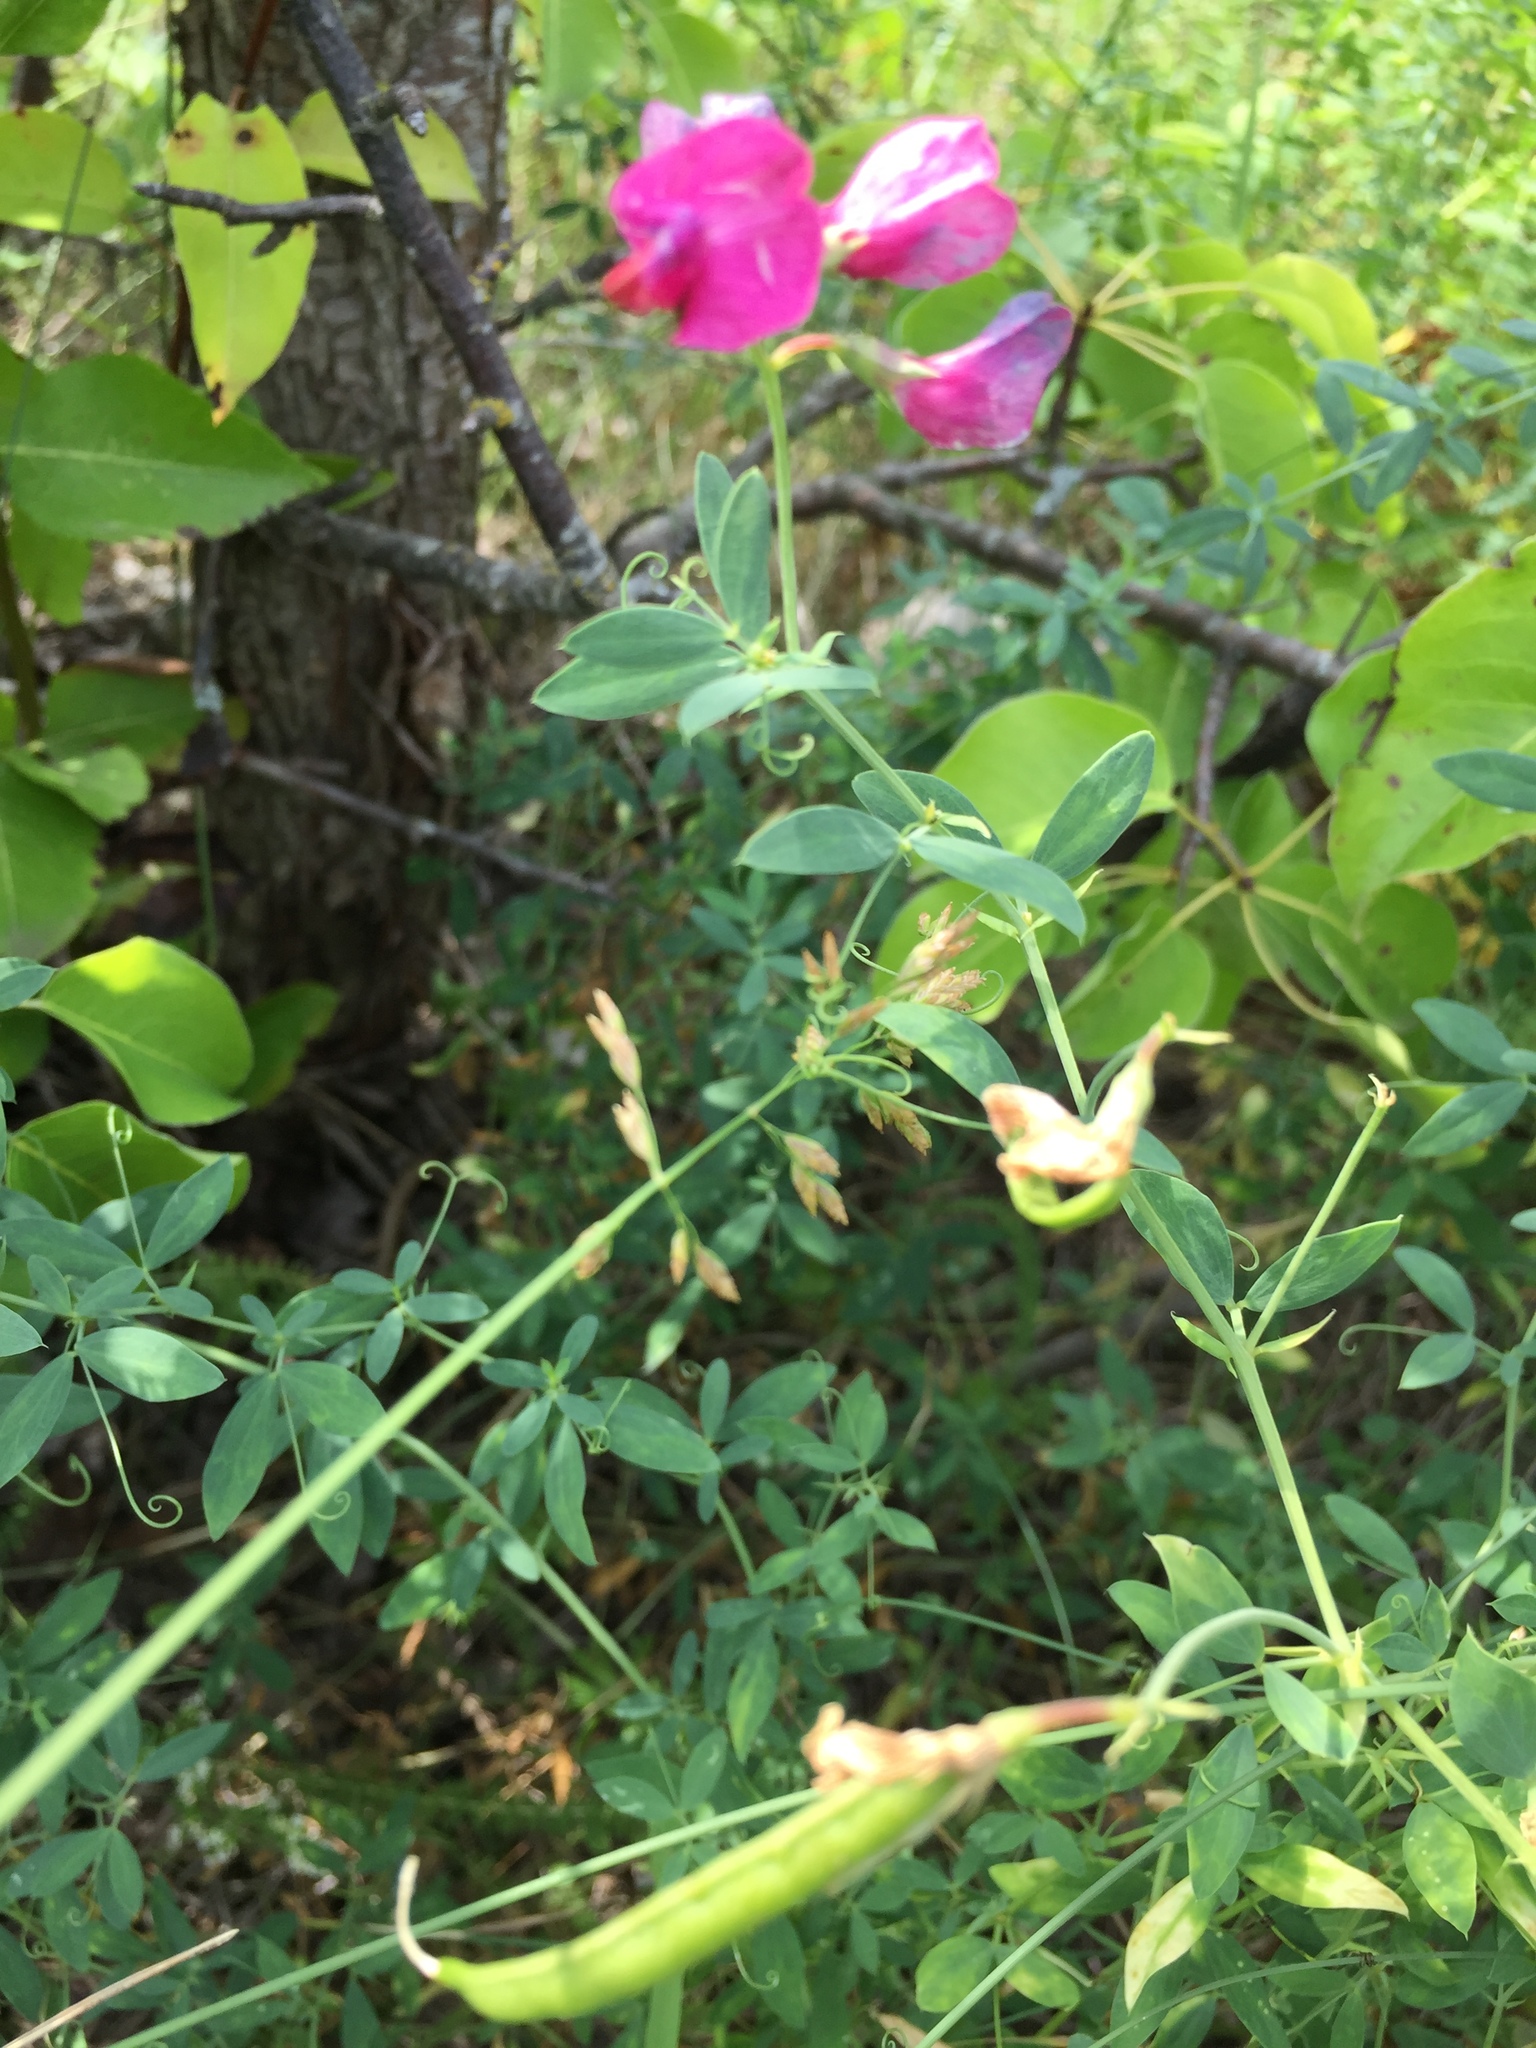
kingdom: Plantae
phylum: Tracheophyta
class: Magnoliopsida
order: Fabales
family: Fabaceae
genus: Lathyrus
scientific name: Lathyrus tuberosus
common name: Tuberous pea
